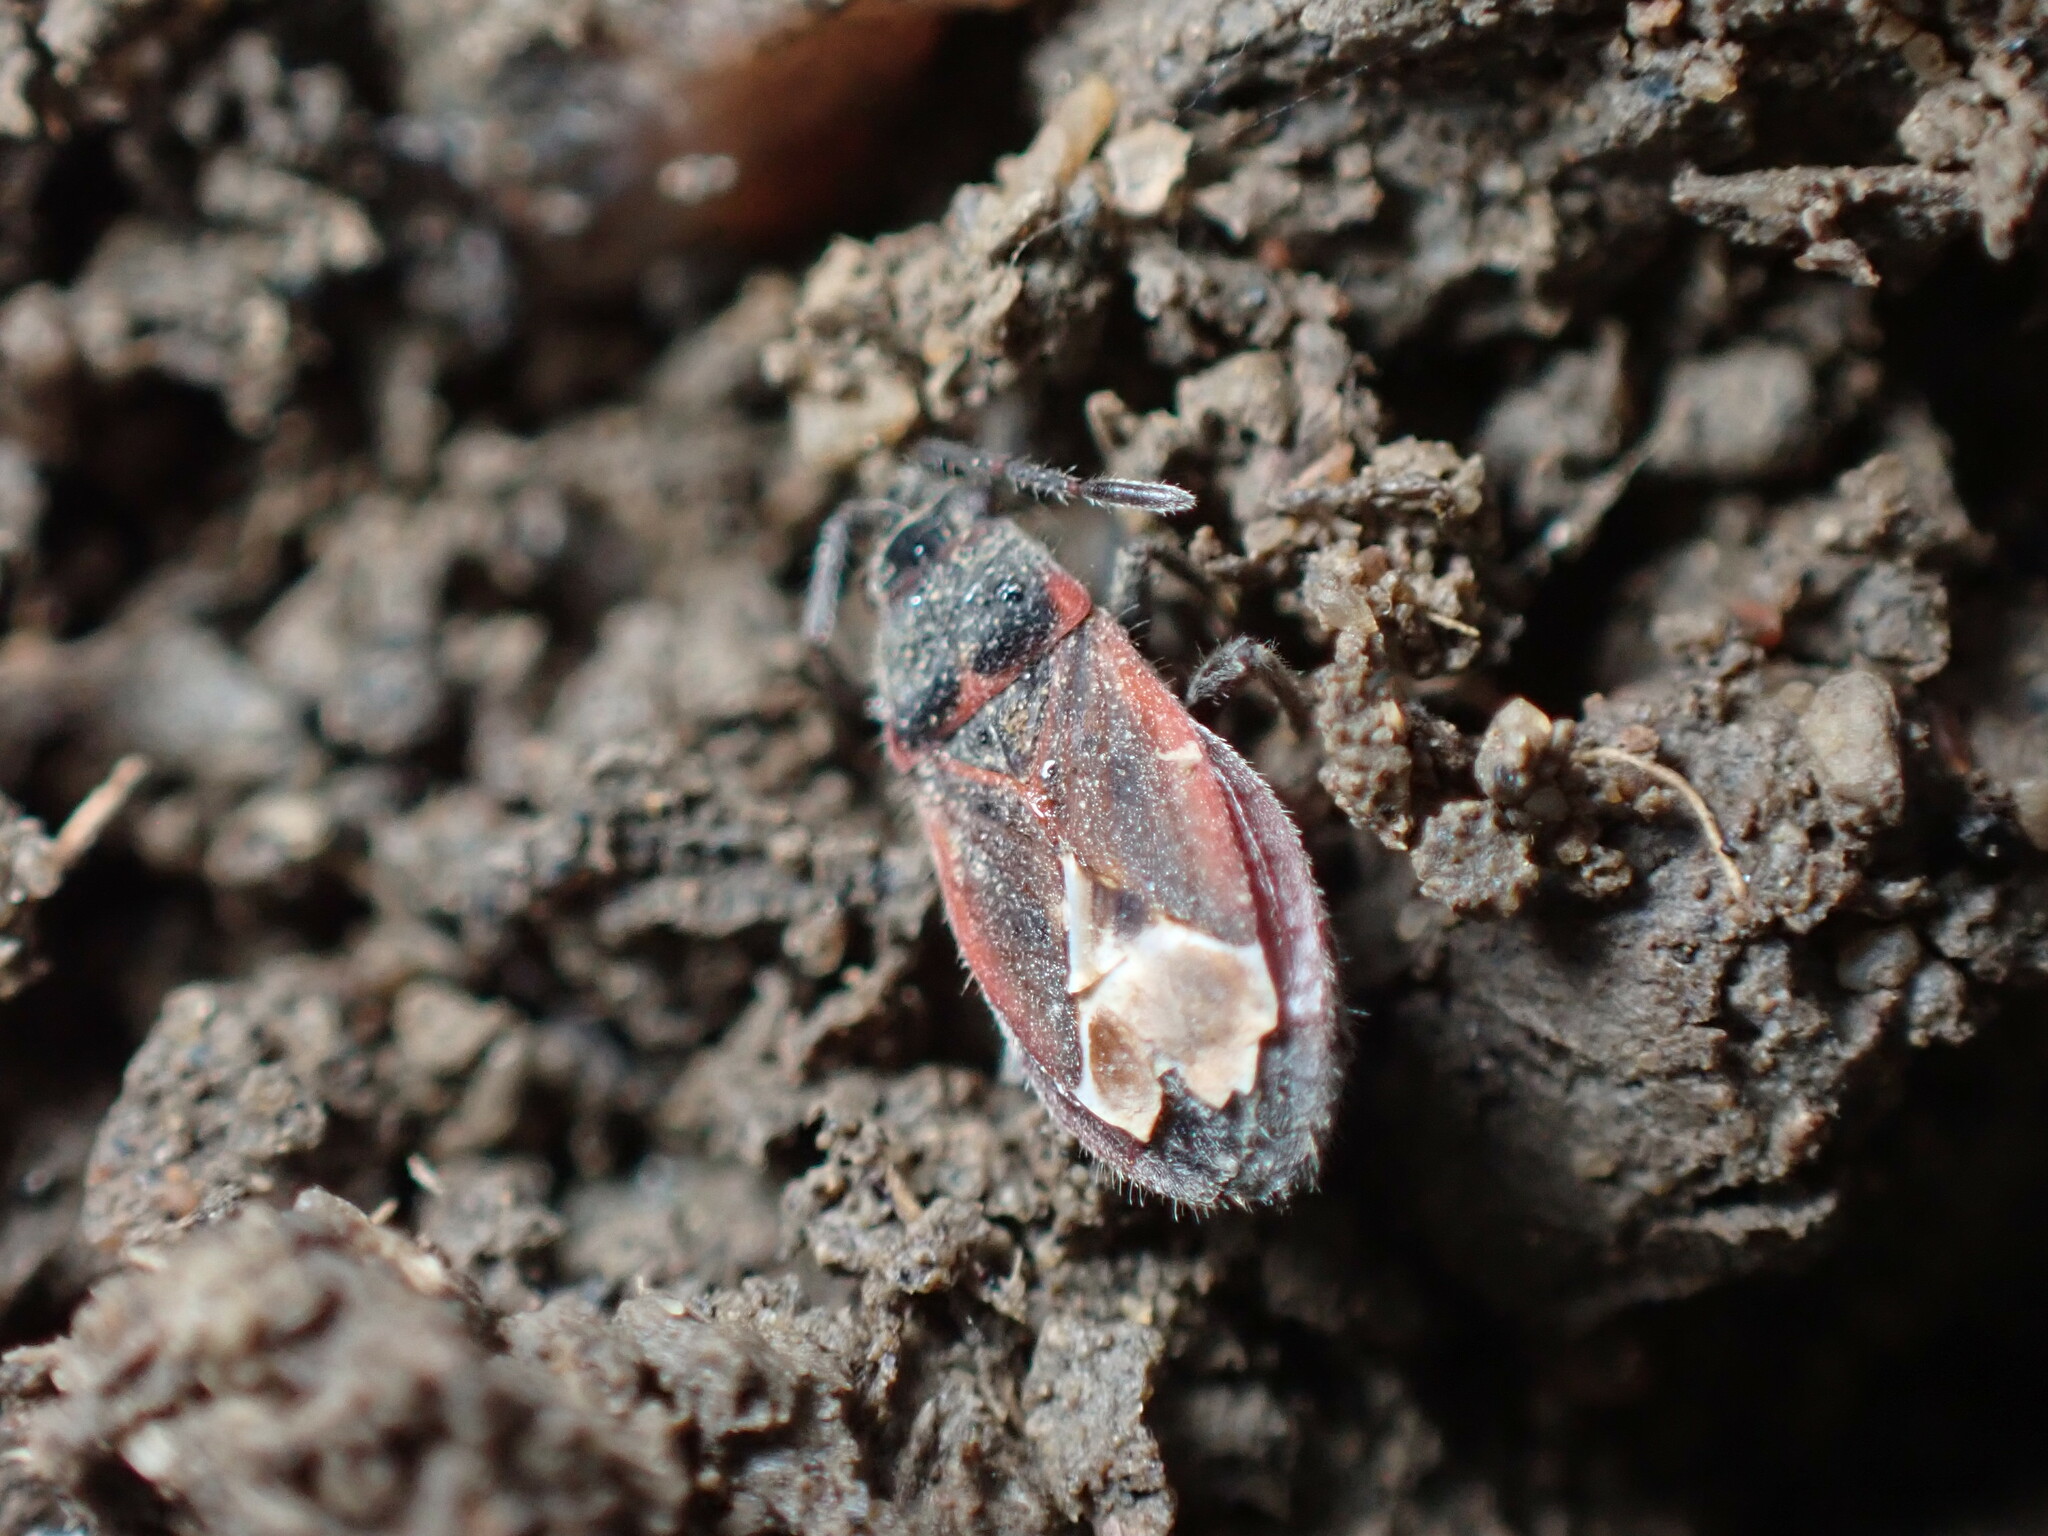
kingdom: Animalia
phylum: Arthropoda
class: Insecta
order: Hemiptera
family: Lygaeidae
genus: Melacoryphus
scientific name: Melacoryphus admirabilis
